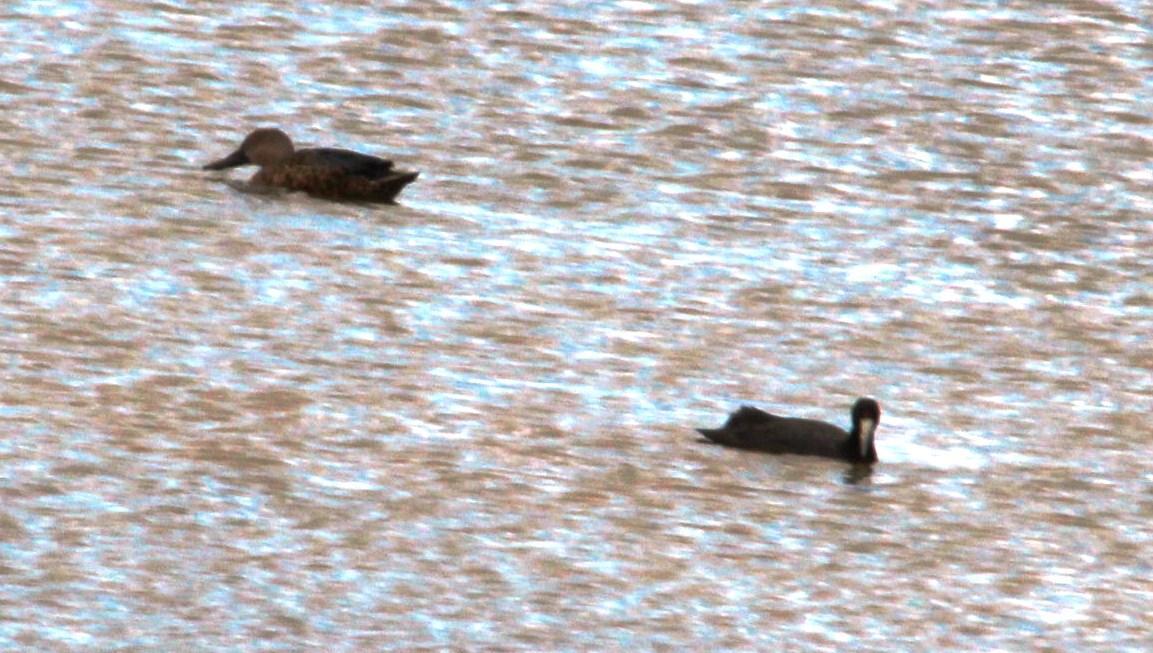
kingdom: Animalia
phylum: Chordata
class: Aves
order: Gruiformes
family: Rallidae
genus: Fulica
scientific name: Fulica cristata
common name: Red-knobbed coot
